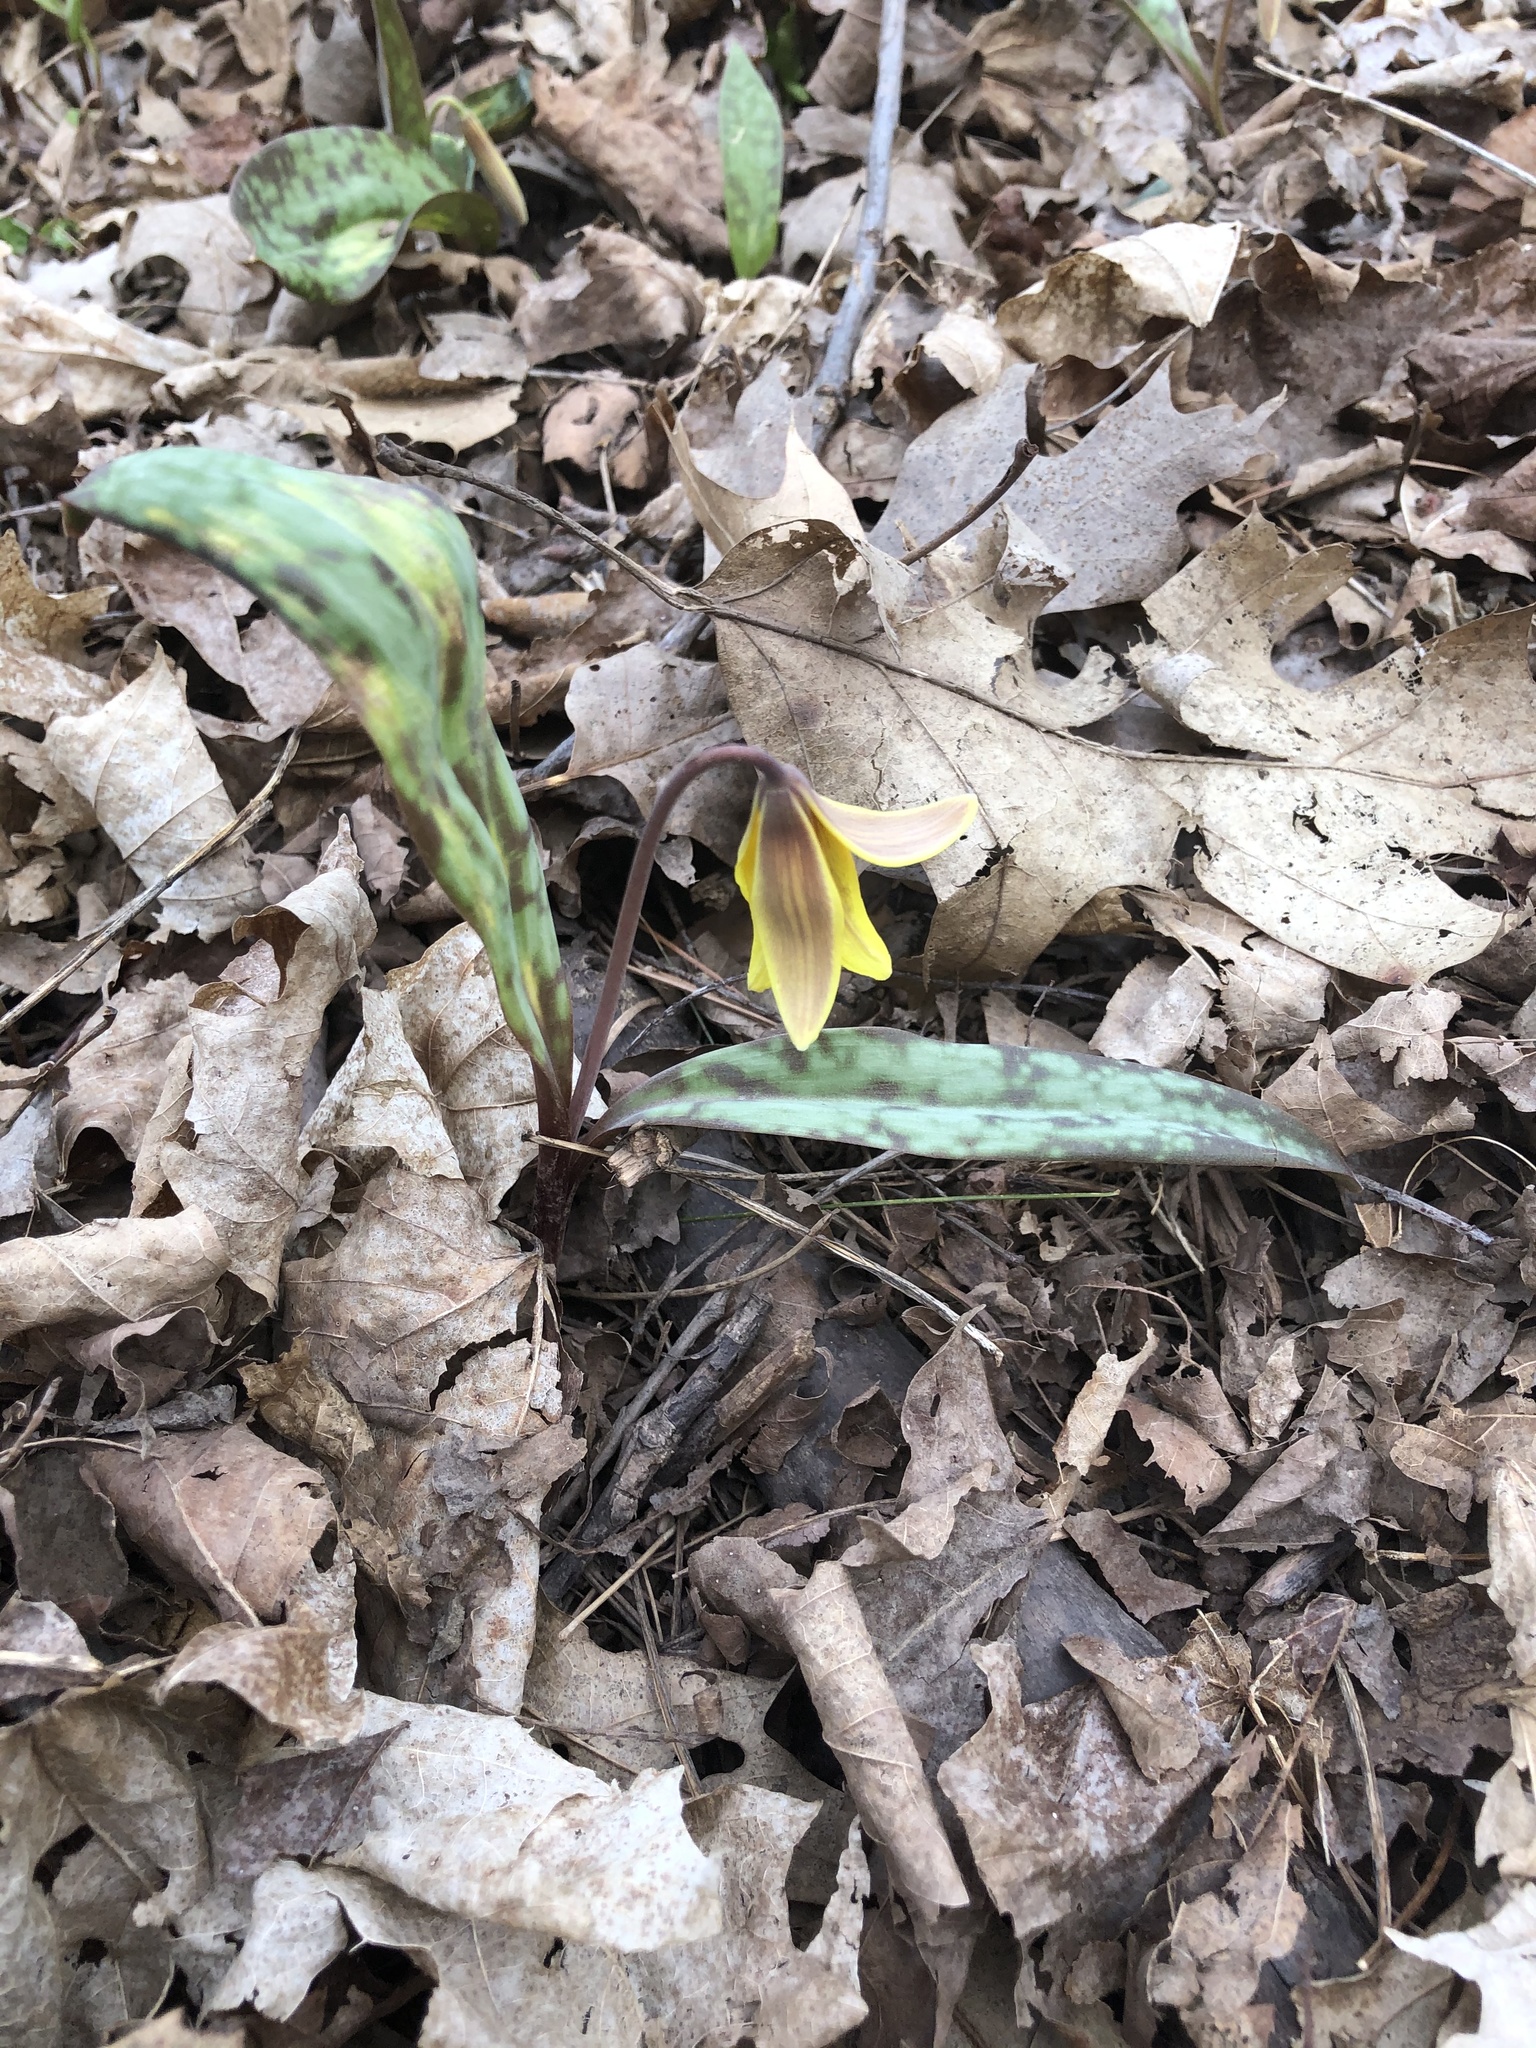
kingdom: Plantae
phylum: Tracheophyta
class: Liliopsida
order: Liliales
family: Liliaceae
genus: Erythronium
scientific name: Erythronium americanum
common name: Yellow adder's-tongue
